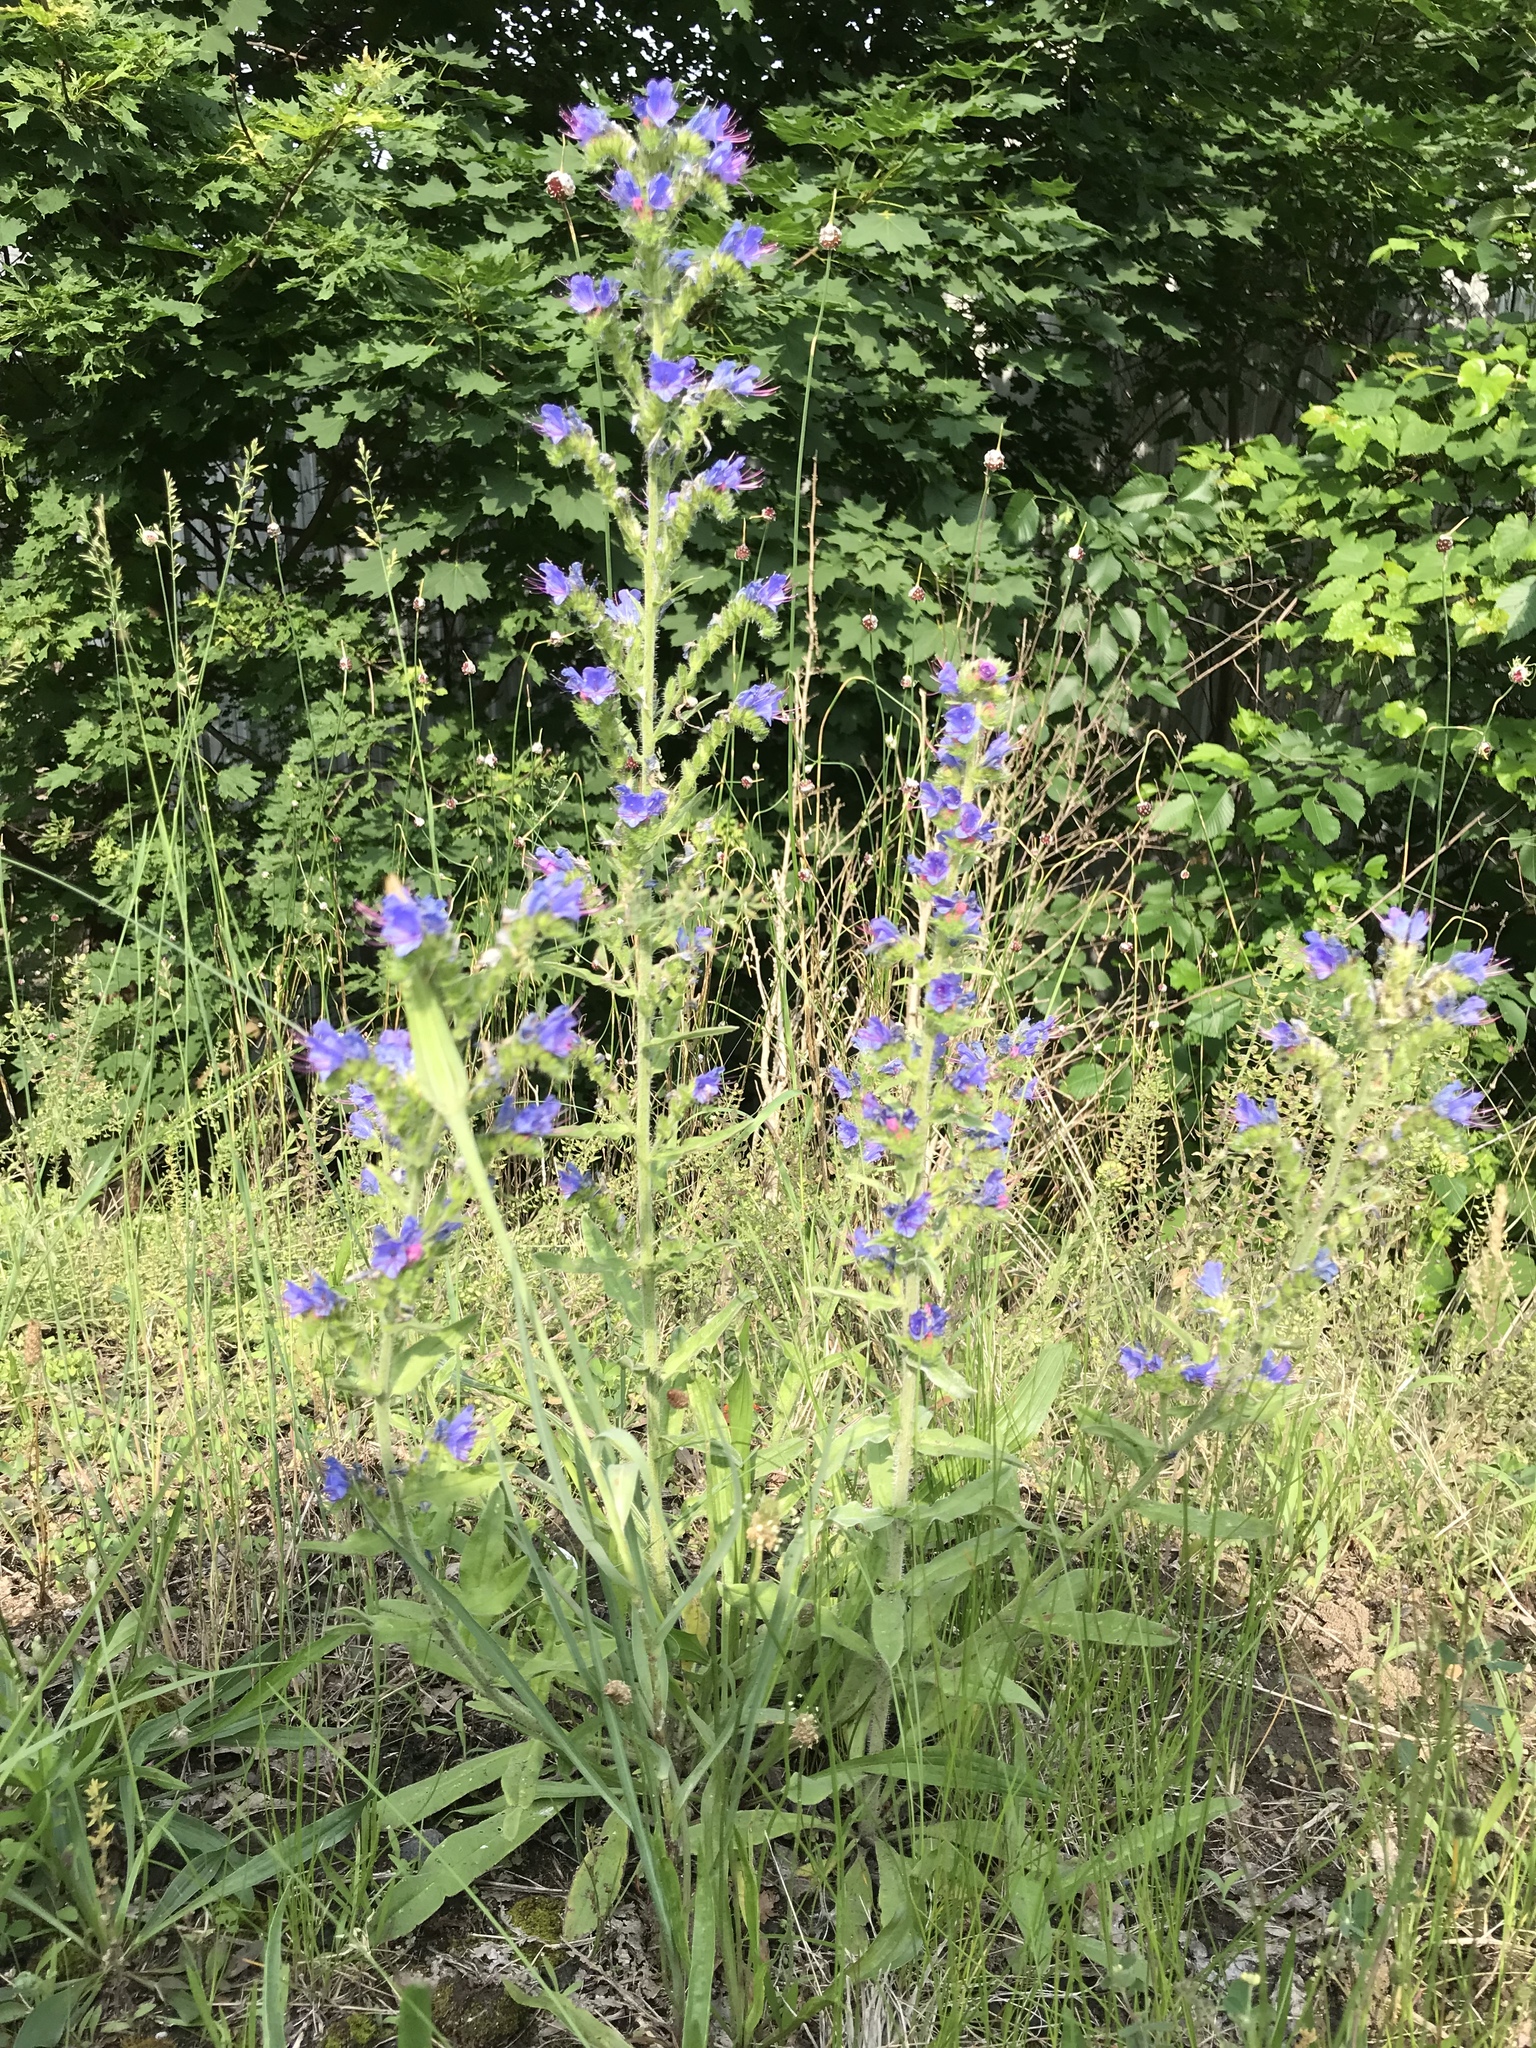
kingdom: Plantae
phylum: Tracheophyta
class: Magnoliopsida
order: Boraginales
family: Boraginaceae
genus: Echium
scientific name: Echium vulgare
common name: Common viper's bugloss
